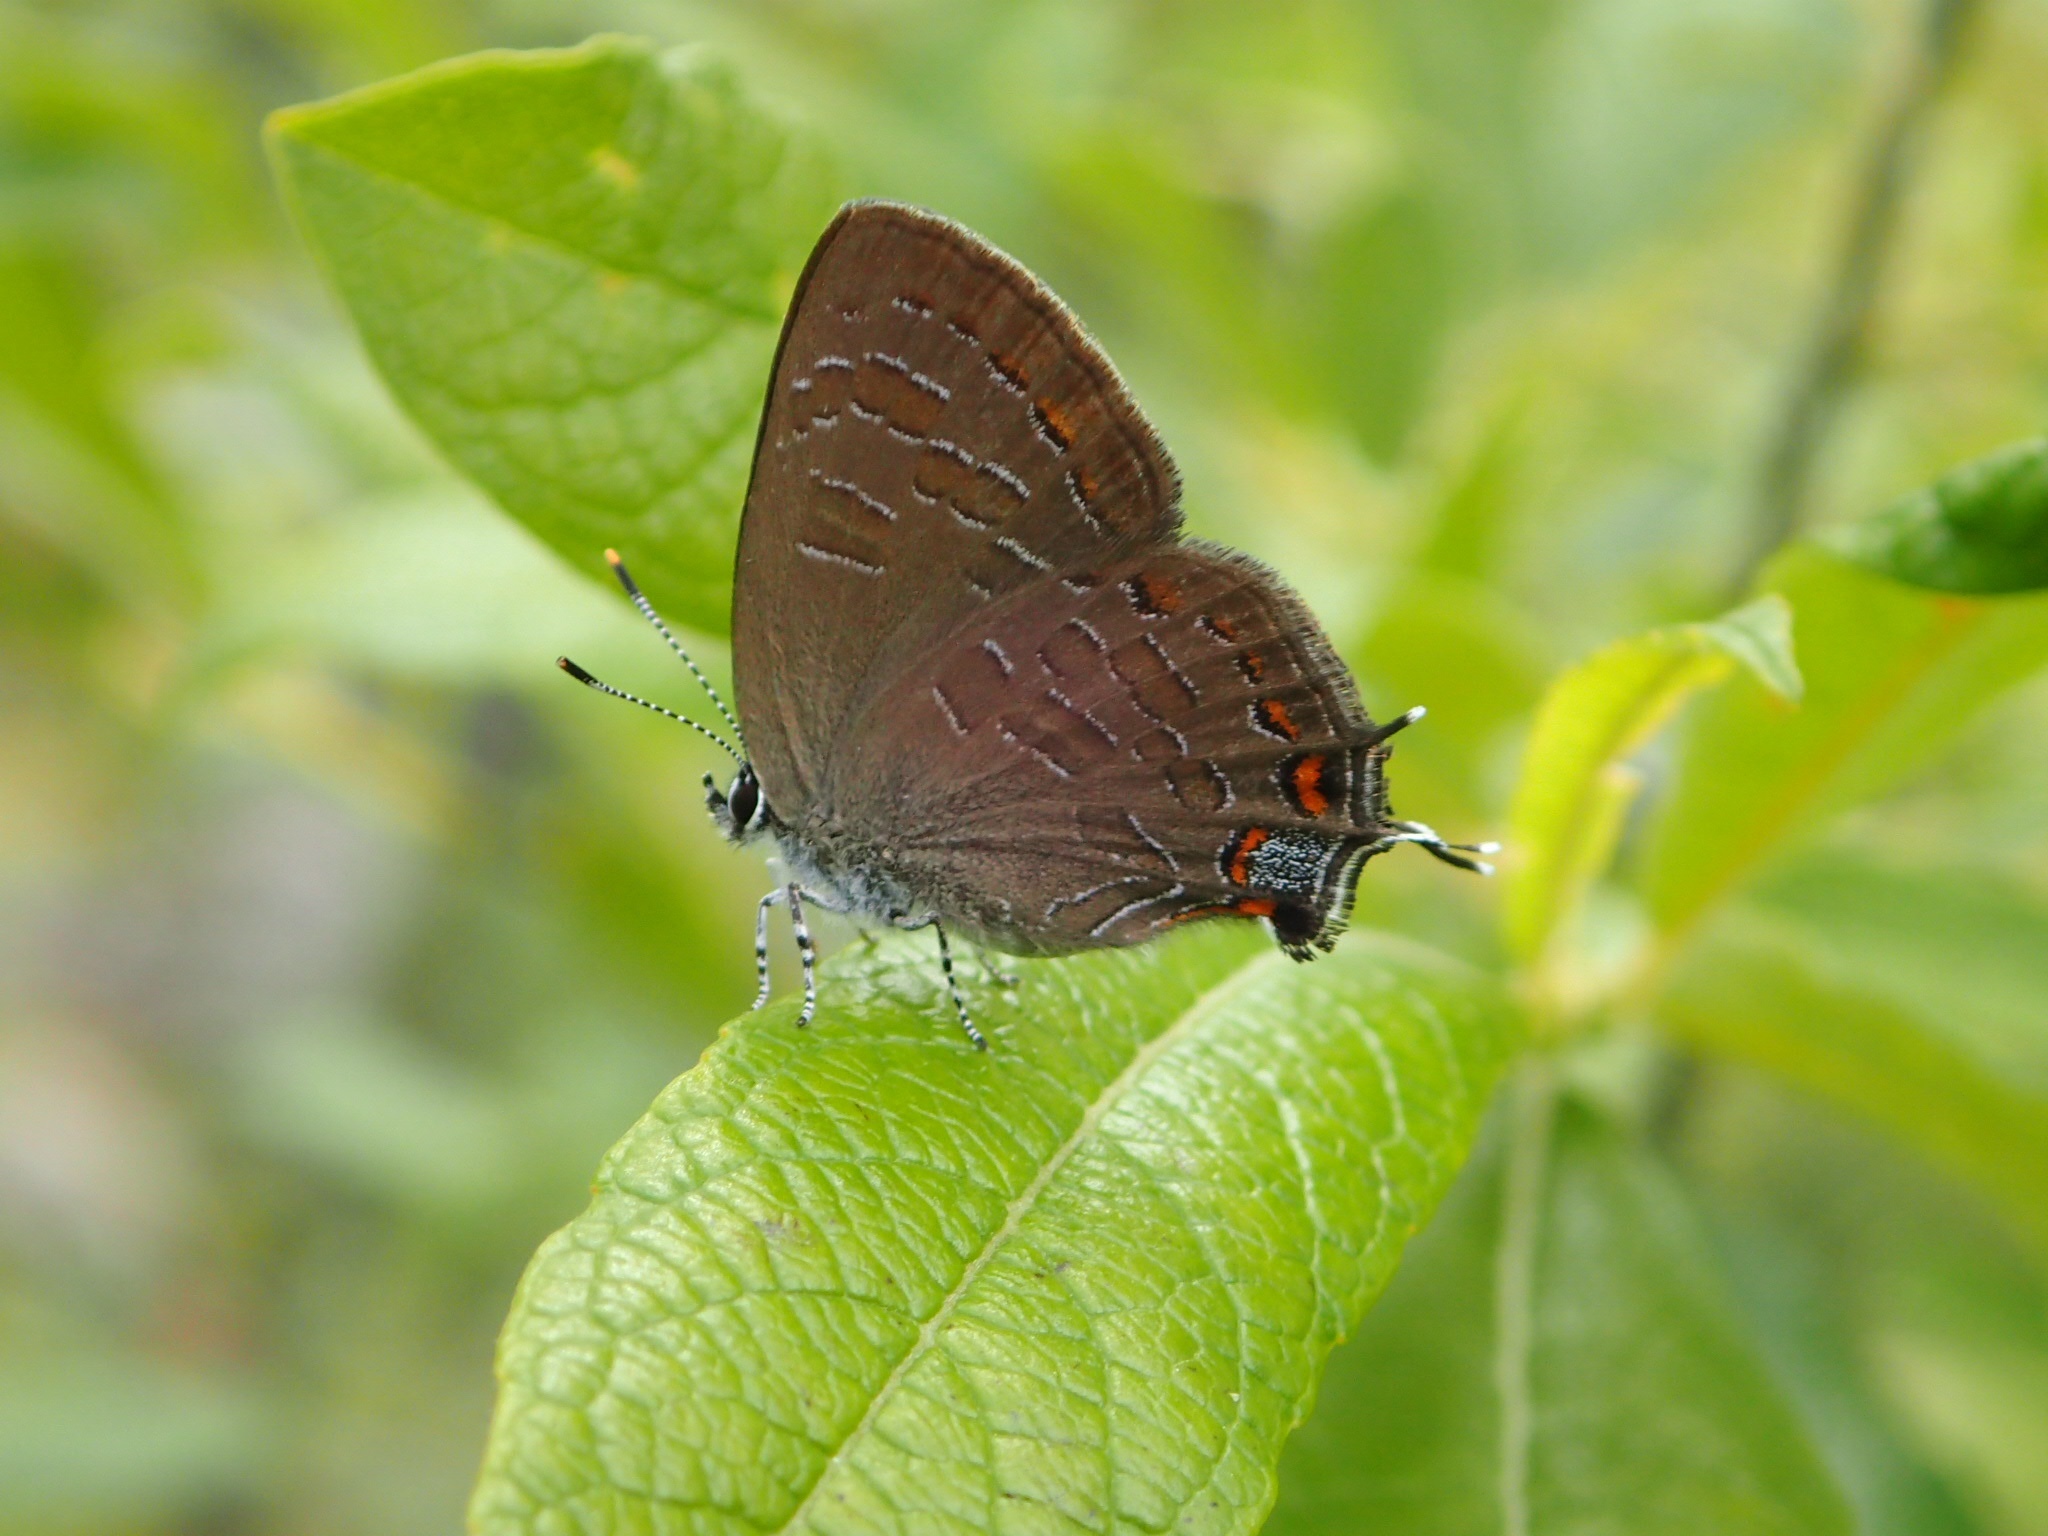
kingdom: Animalia
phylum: Arthropoda
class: Insecta
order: Lepidoptera
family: Lycaenidae
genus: Satyrium
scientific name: Satyrium liparops
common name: Striped hairstreak
